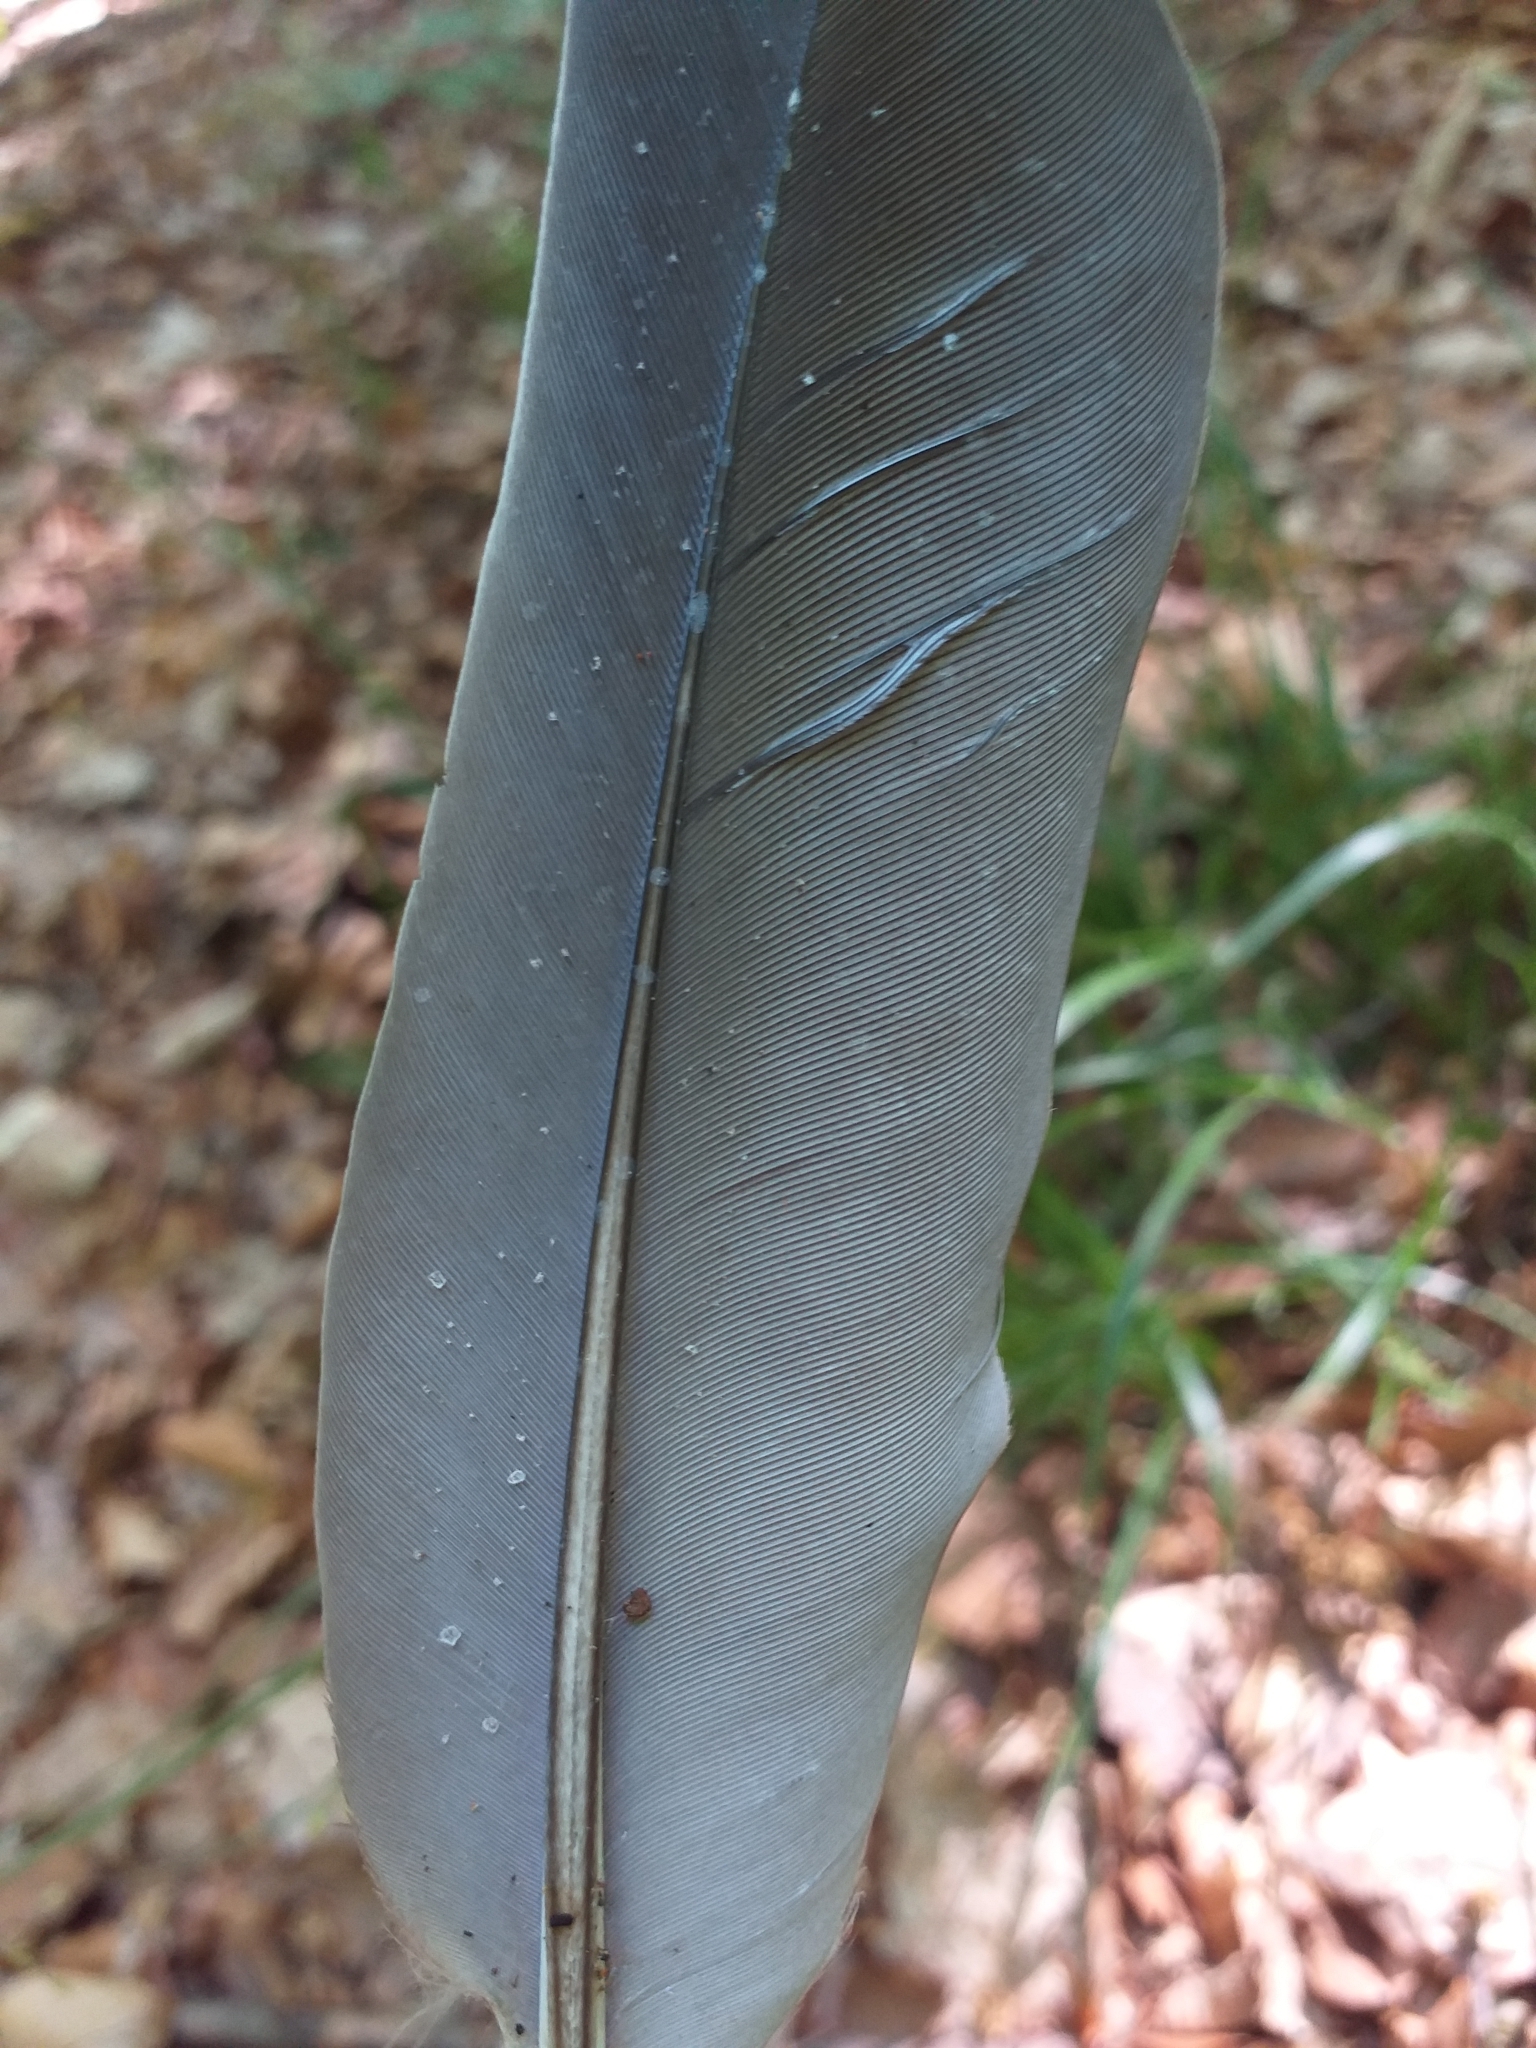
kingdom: Animalia
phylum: Chordata
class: Aves
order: Columbiformes
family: Columbidae
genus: Columba
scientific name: Columba palumbus
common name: Common wood pigeon
